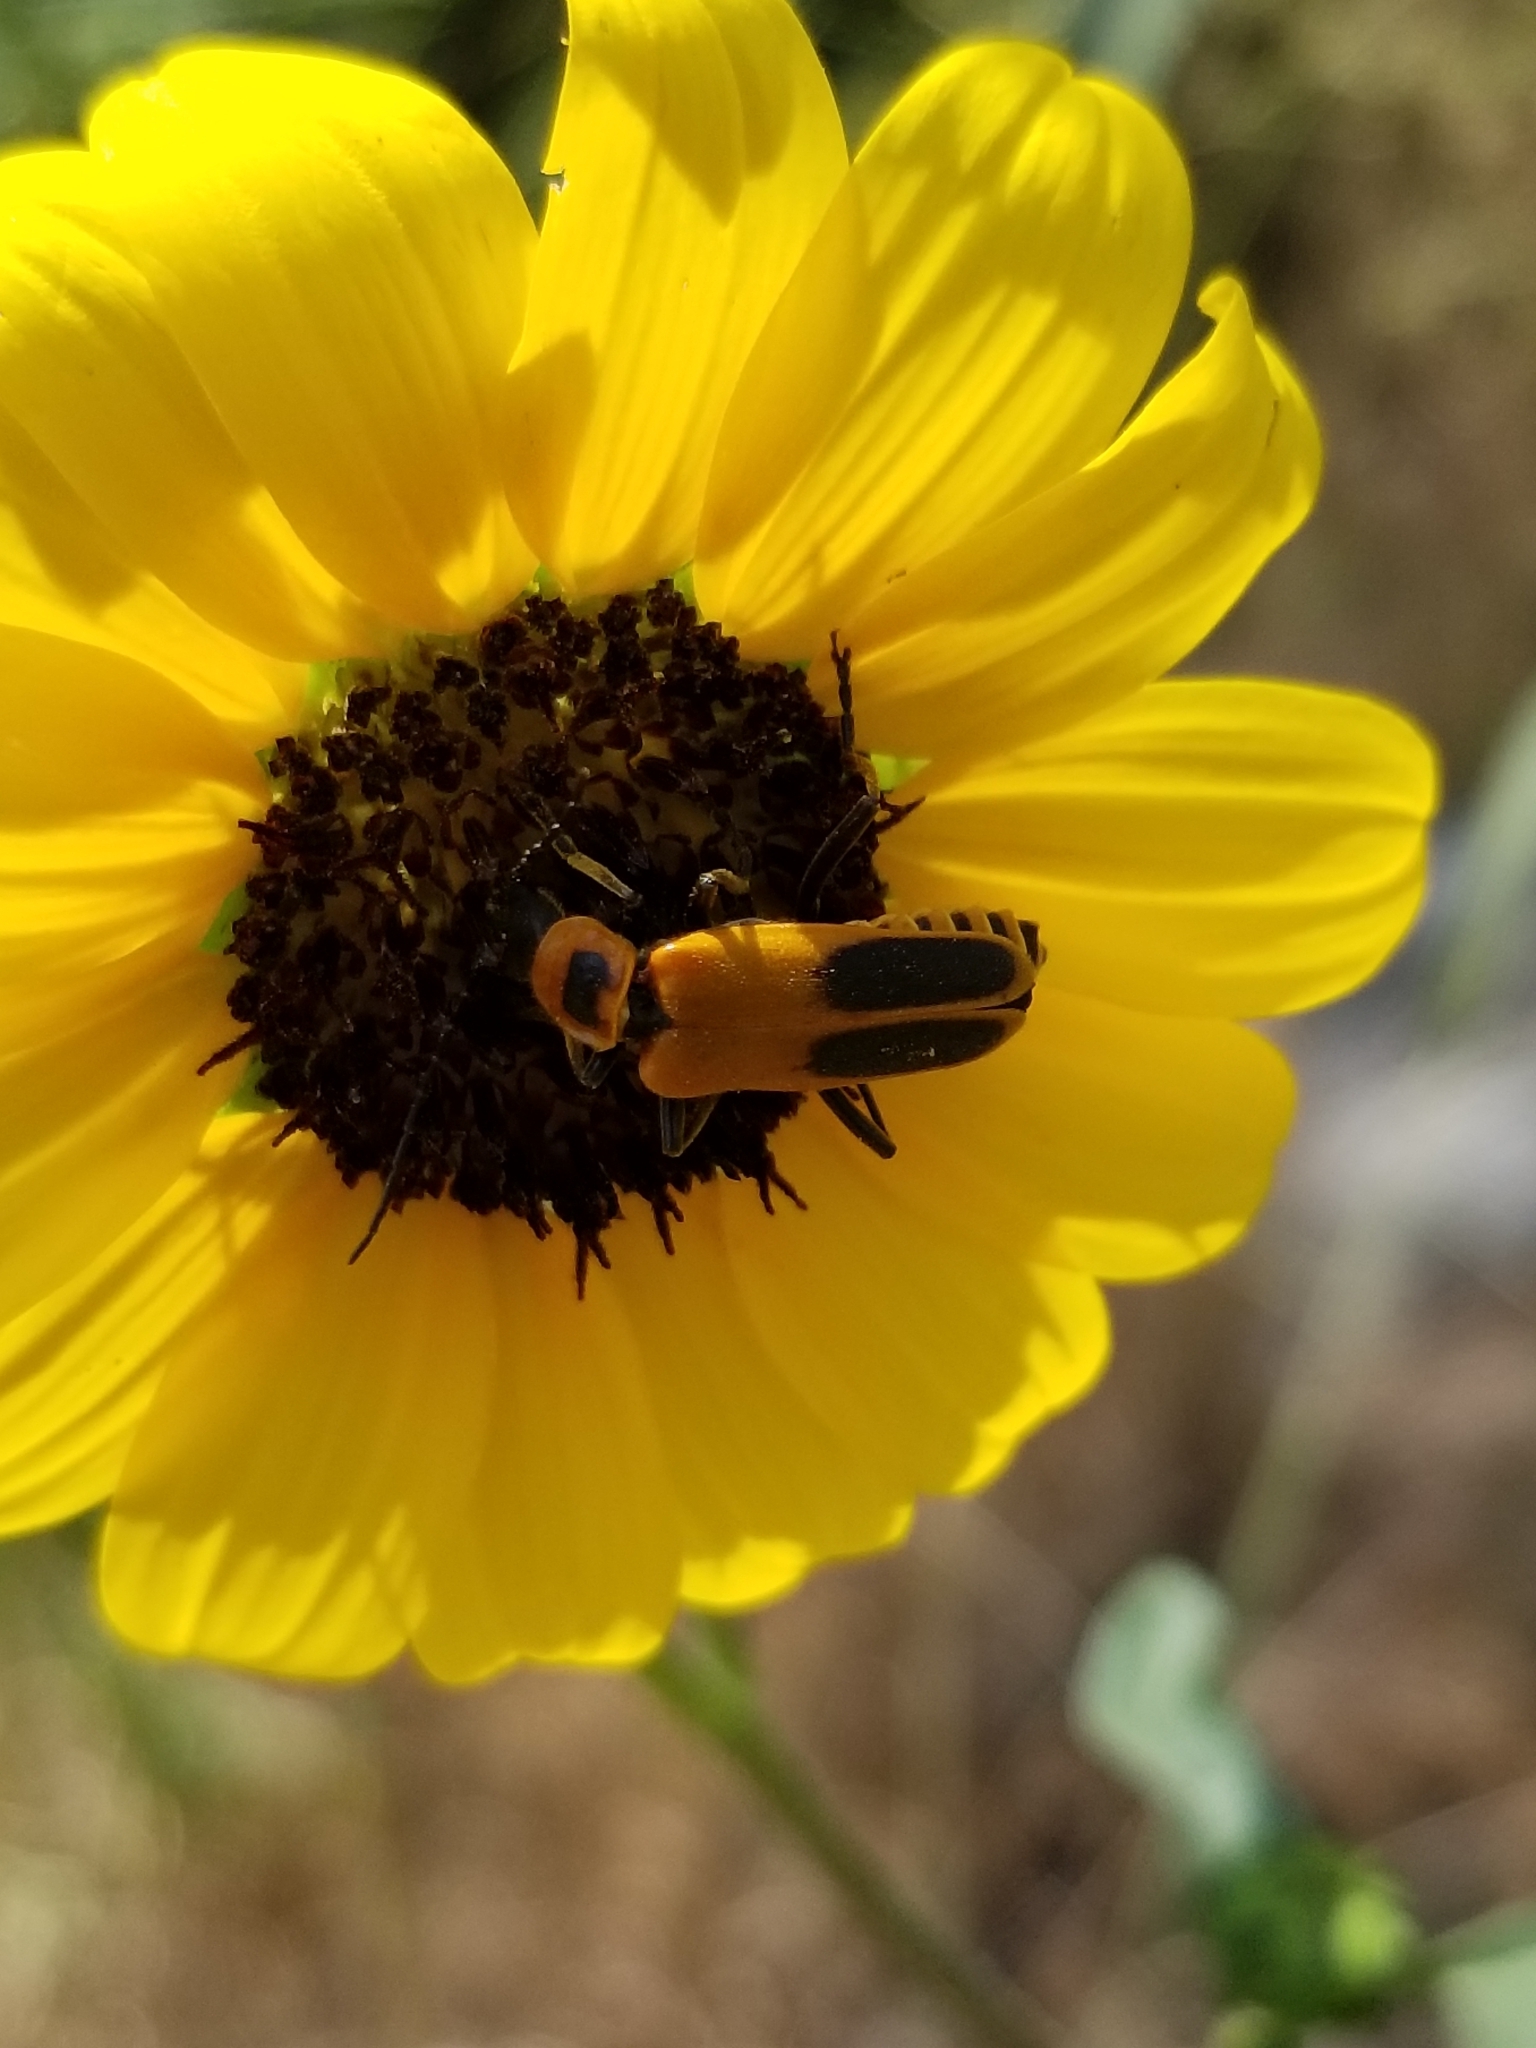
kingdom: Animalia
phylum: Arthropoda
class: Insecta
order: Coleoptera
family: Cantharidae
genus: Chauliognathus
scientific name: Chauliognathus pensylvanicus
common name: Goldenrod soldier beetle
